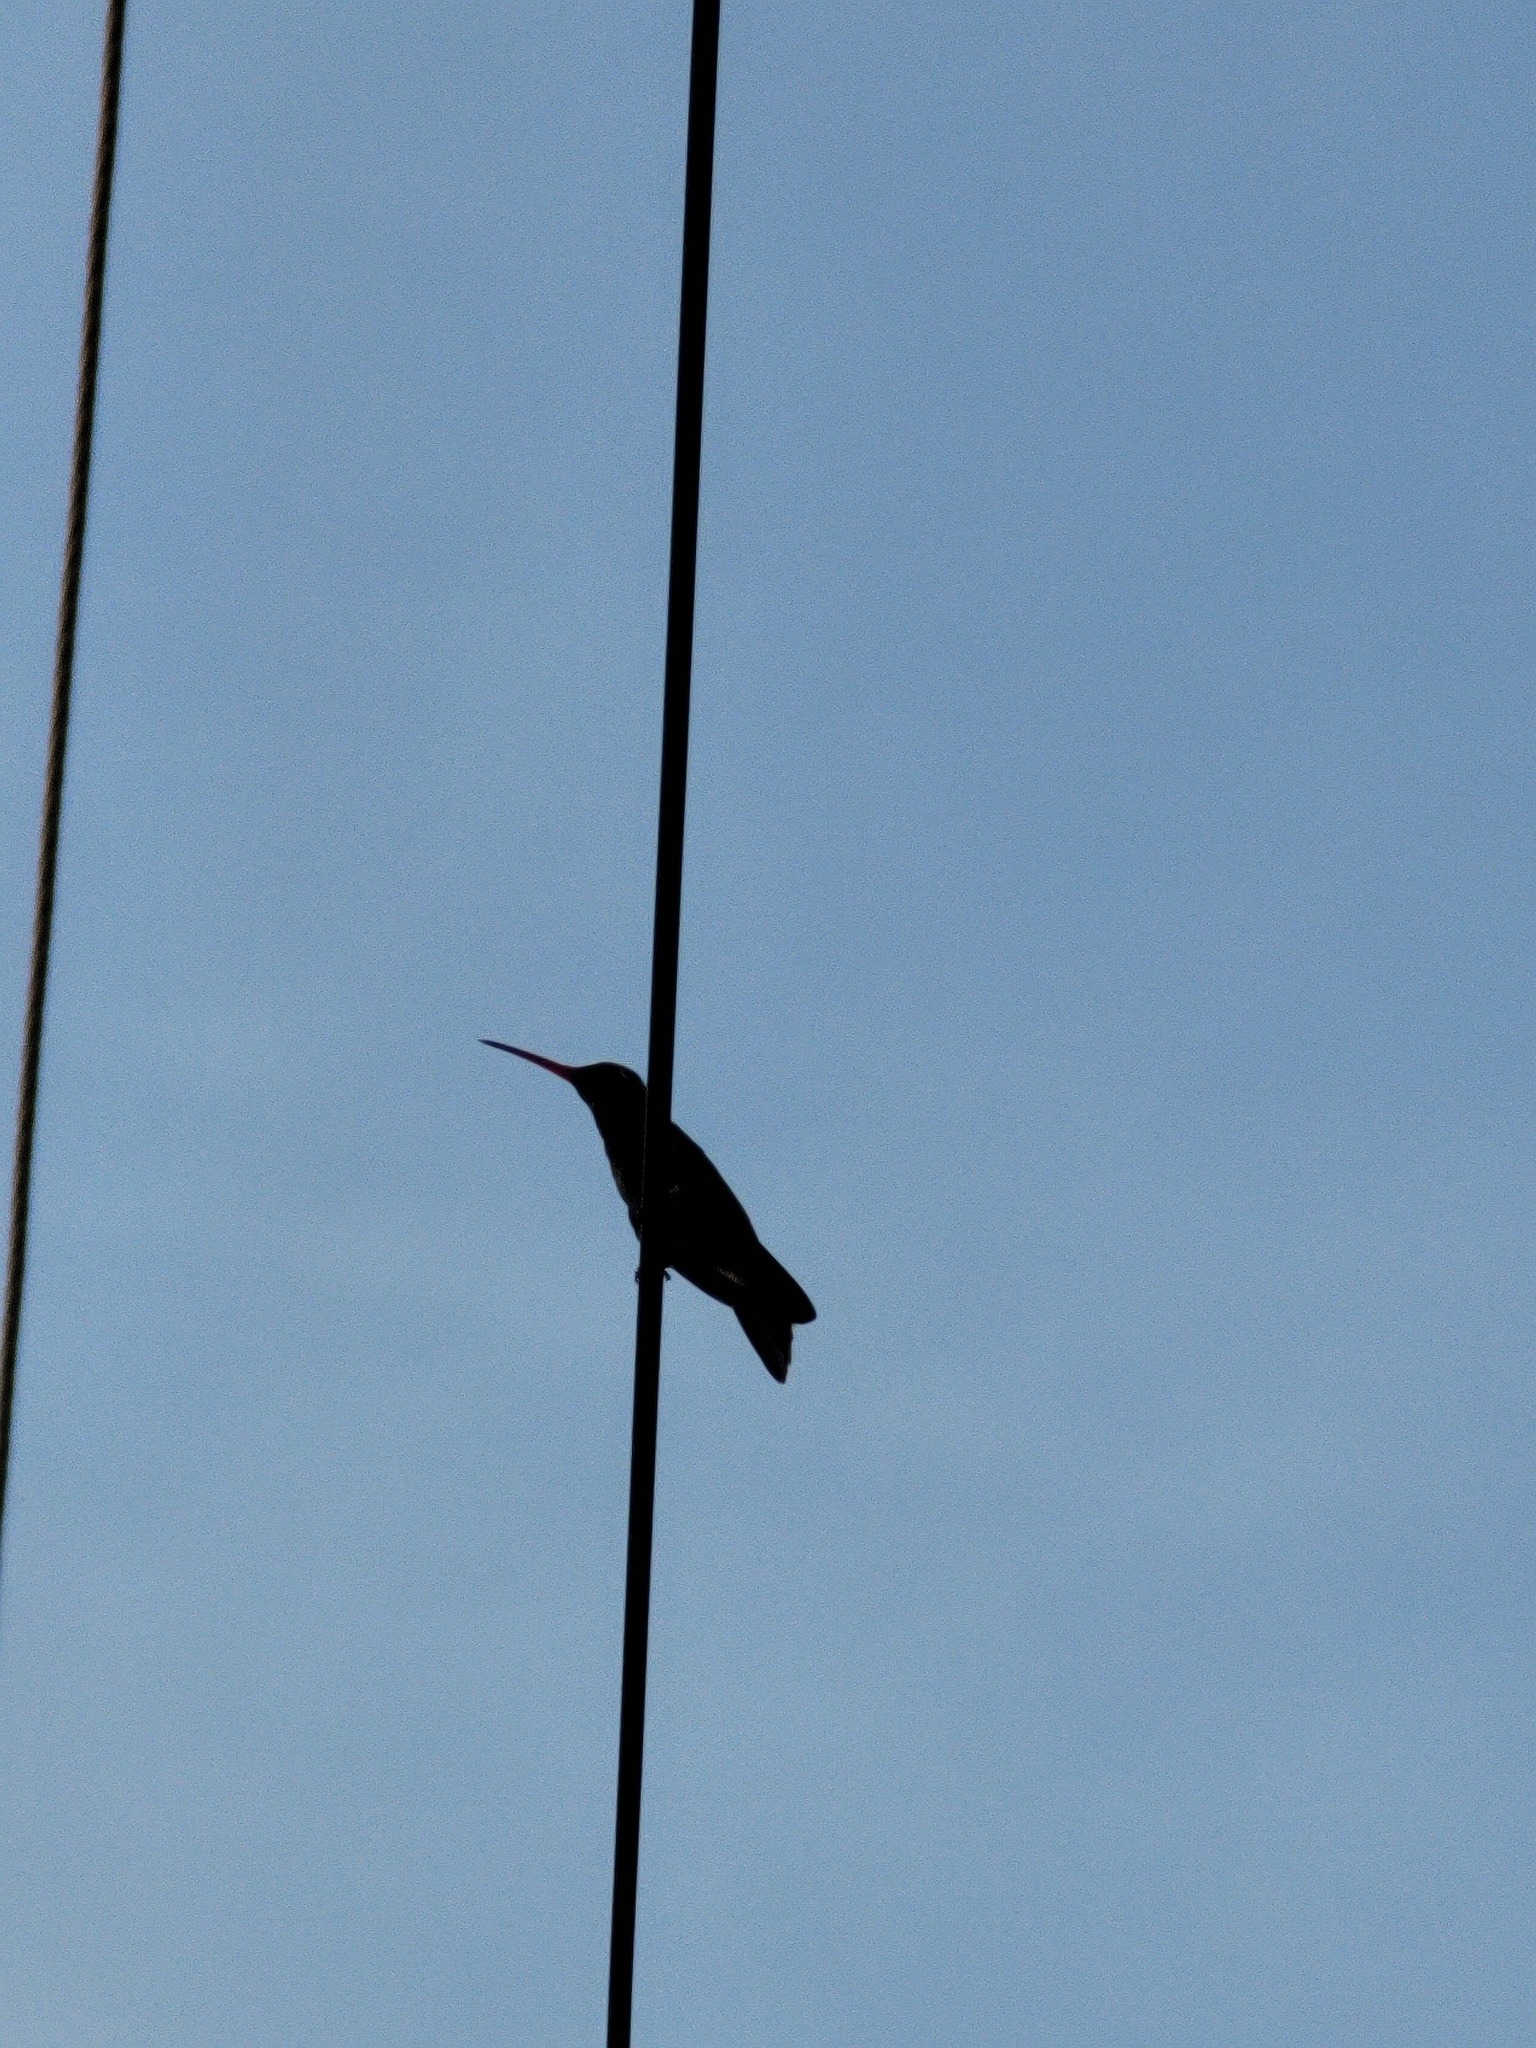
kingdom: Animalia
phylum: Chordata
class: Aves
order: Apodiformes
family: Trochilidae
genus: Cynanthus
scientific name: Cynanthus latirostris
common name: Broad-billed hummingbird
